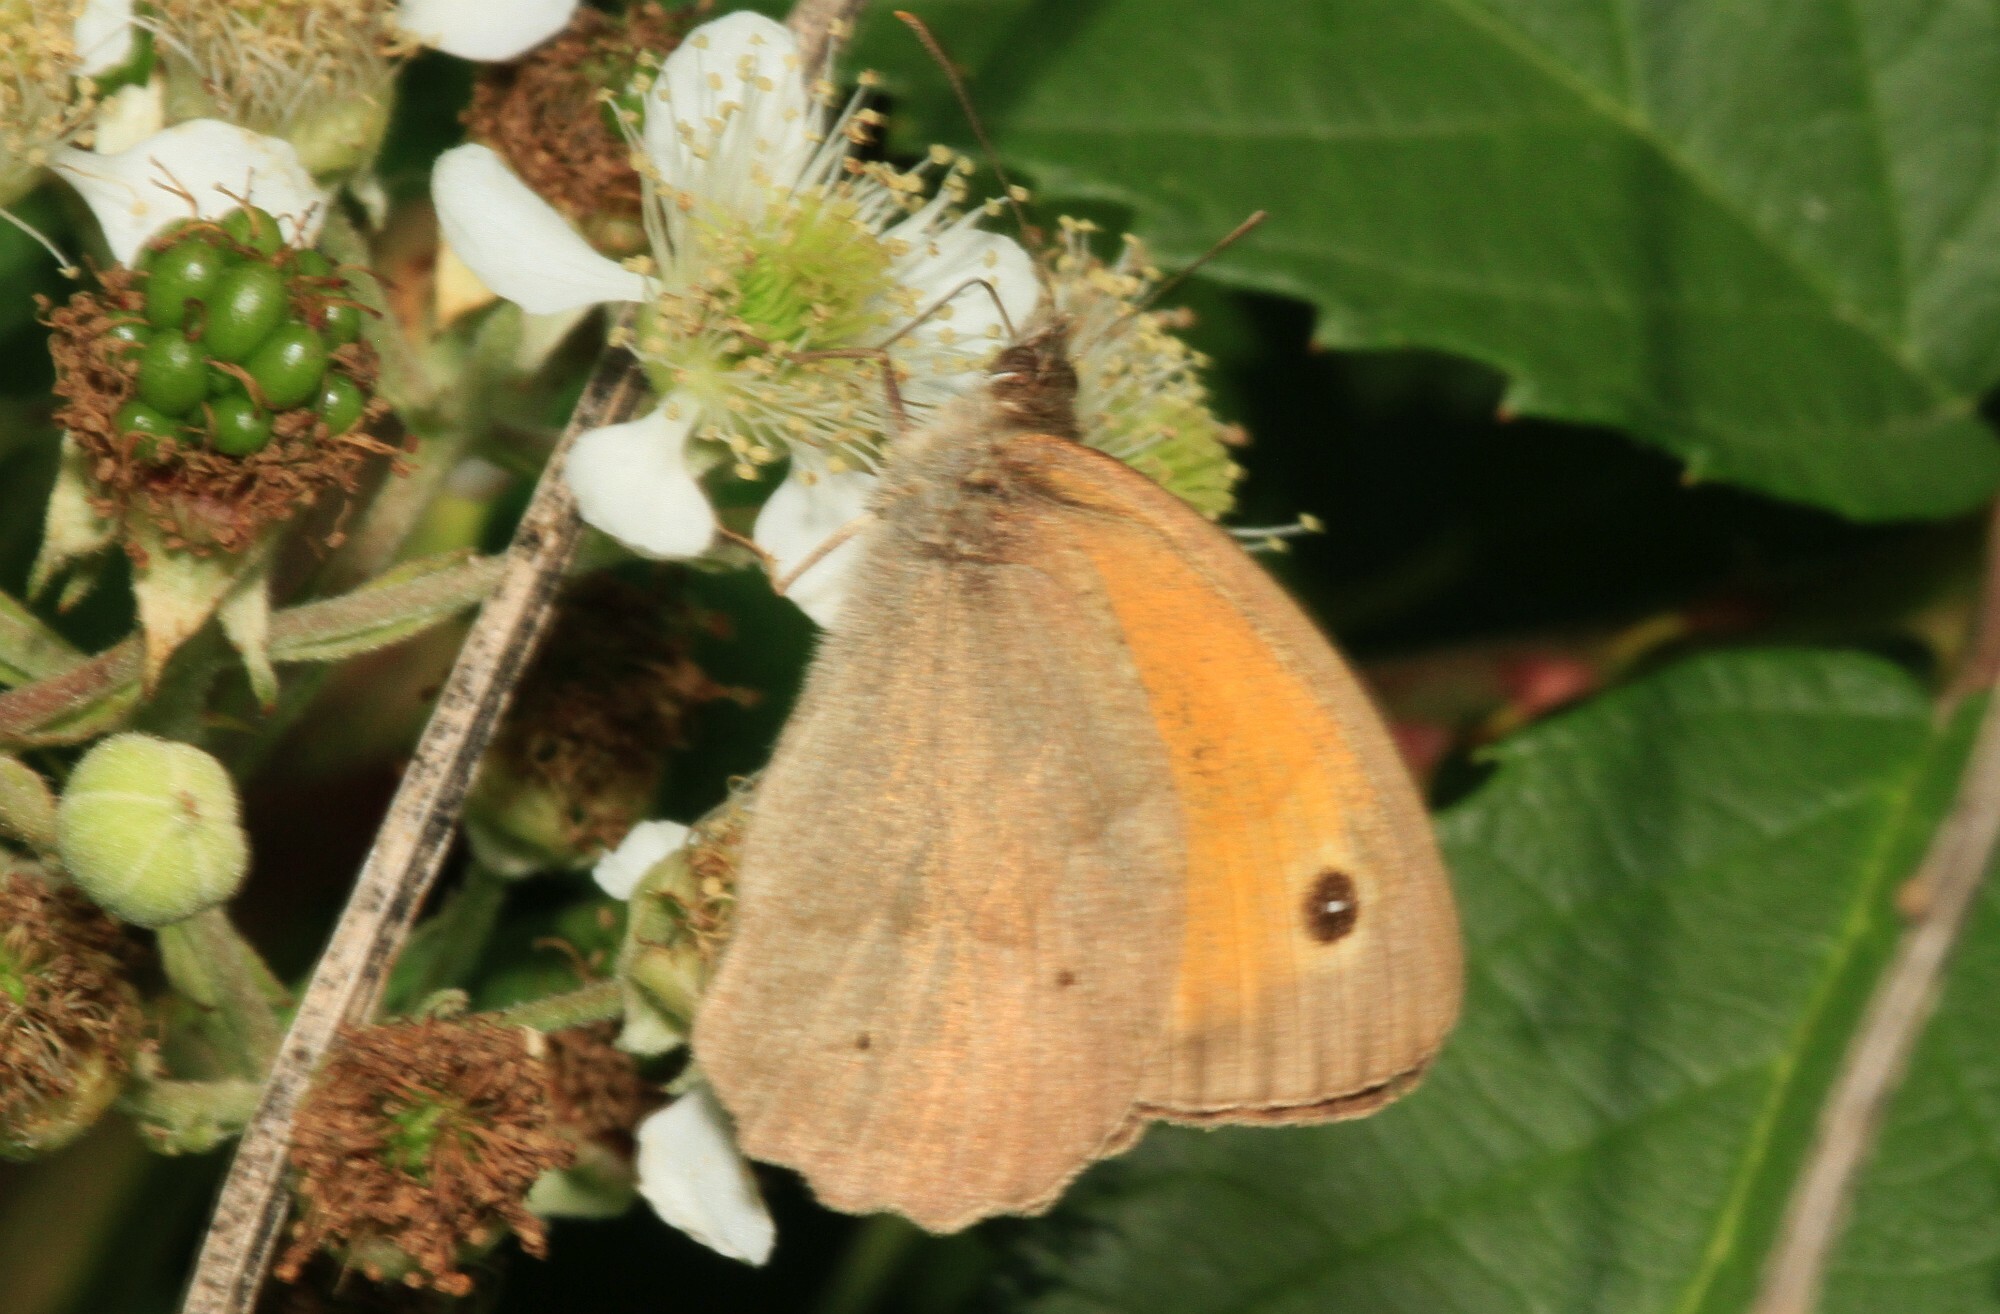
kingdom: Animalia
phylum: Arthropoda
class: Insecta
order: Lepidoptera
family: Nymphalidae
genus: Maniola
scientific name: Maniola jurtina
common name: Meadow brown
